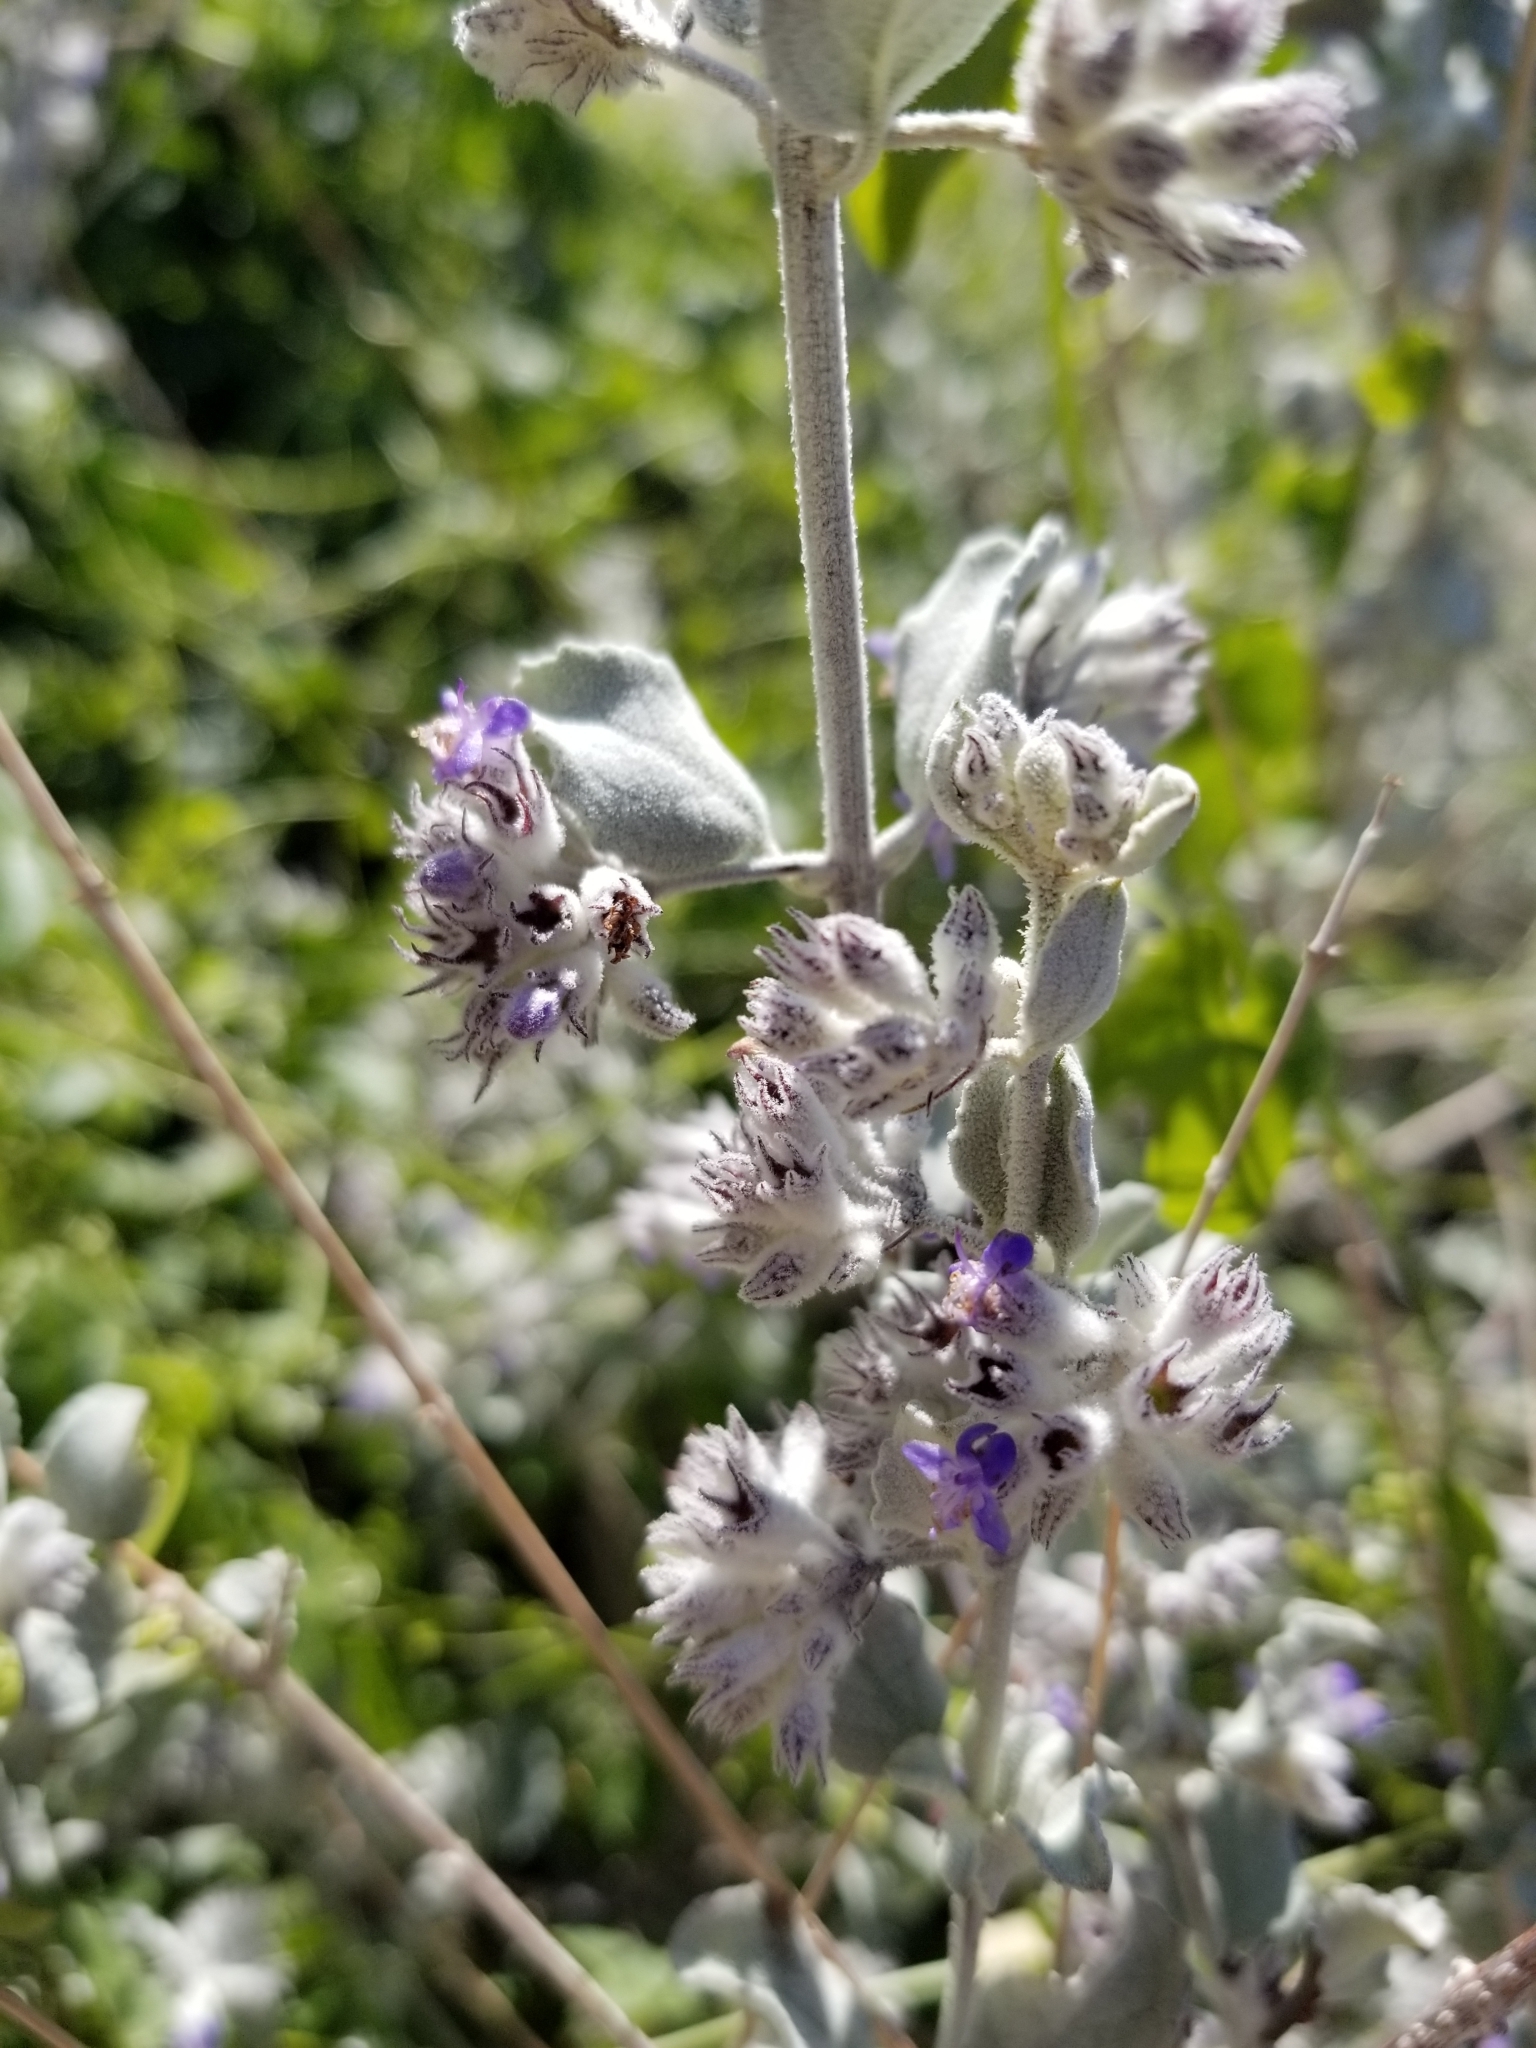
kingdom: Plantae
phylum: Tracheophyta
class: Magnoliopsida
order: Lamiales
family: Lamiaceae
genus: Condea
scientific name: Condea emoryi
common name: Chia
